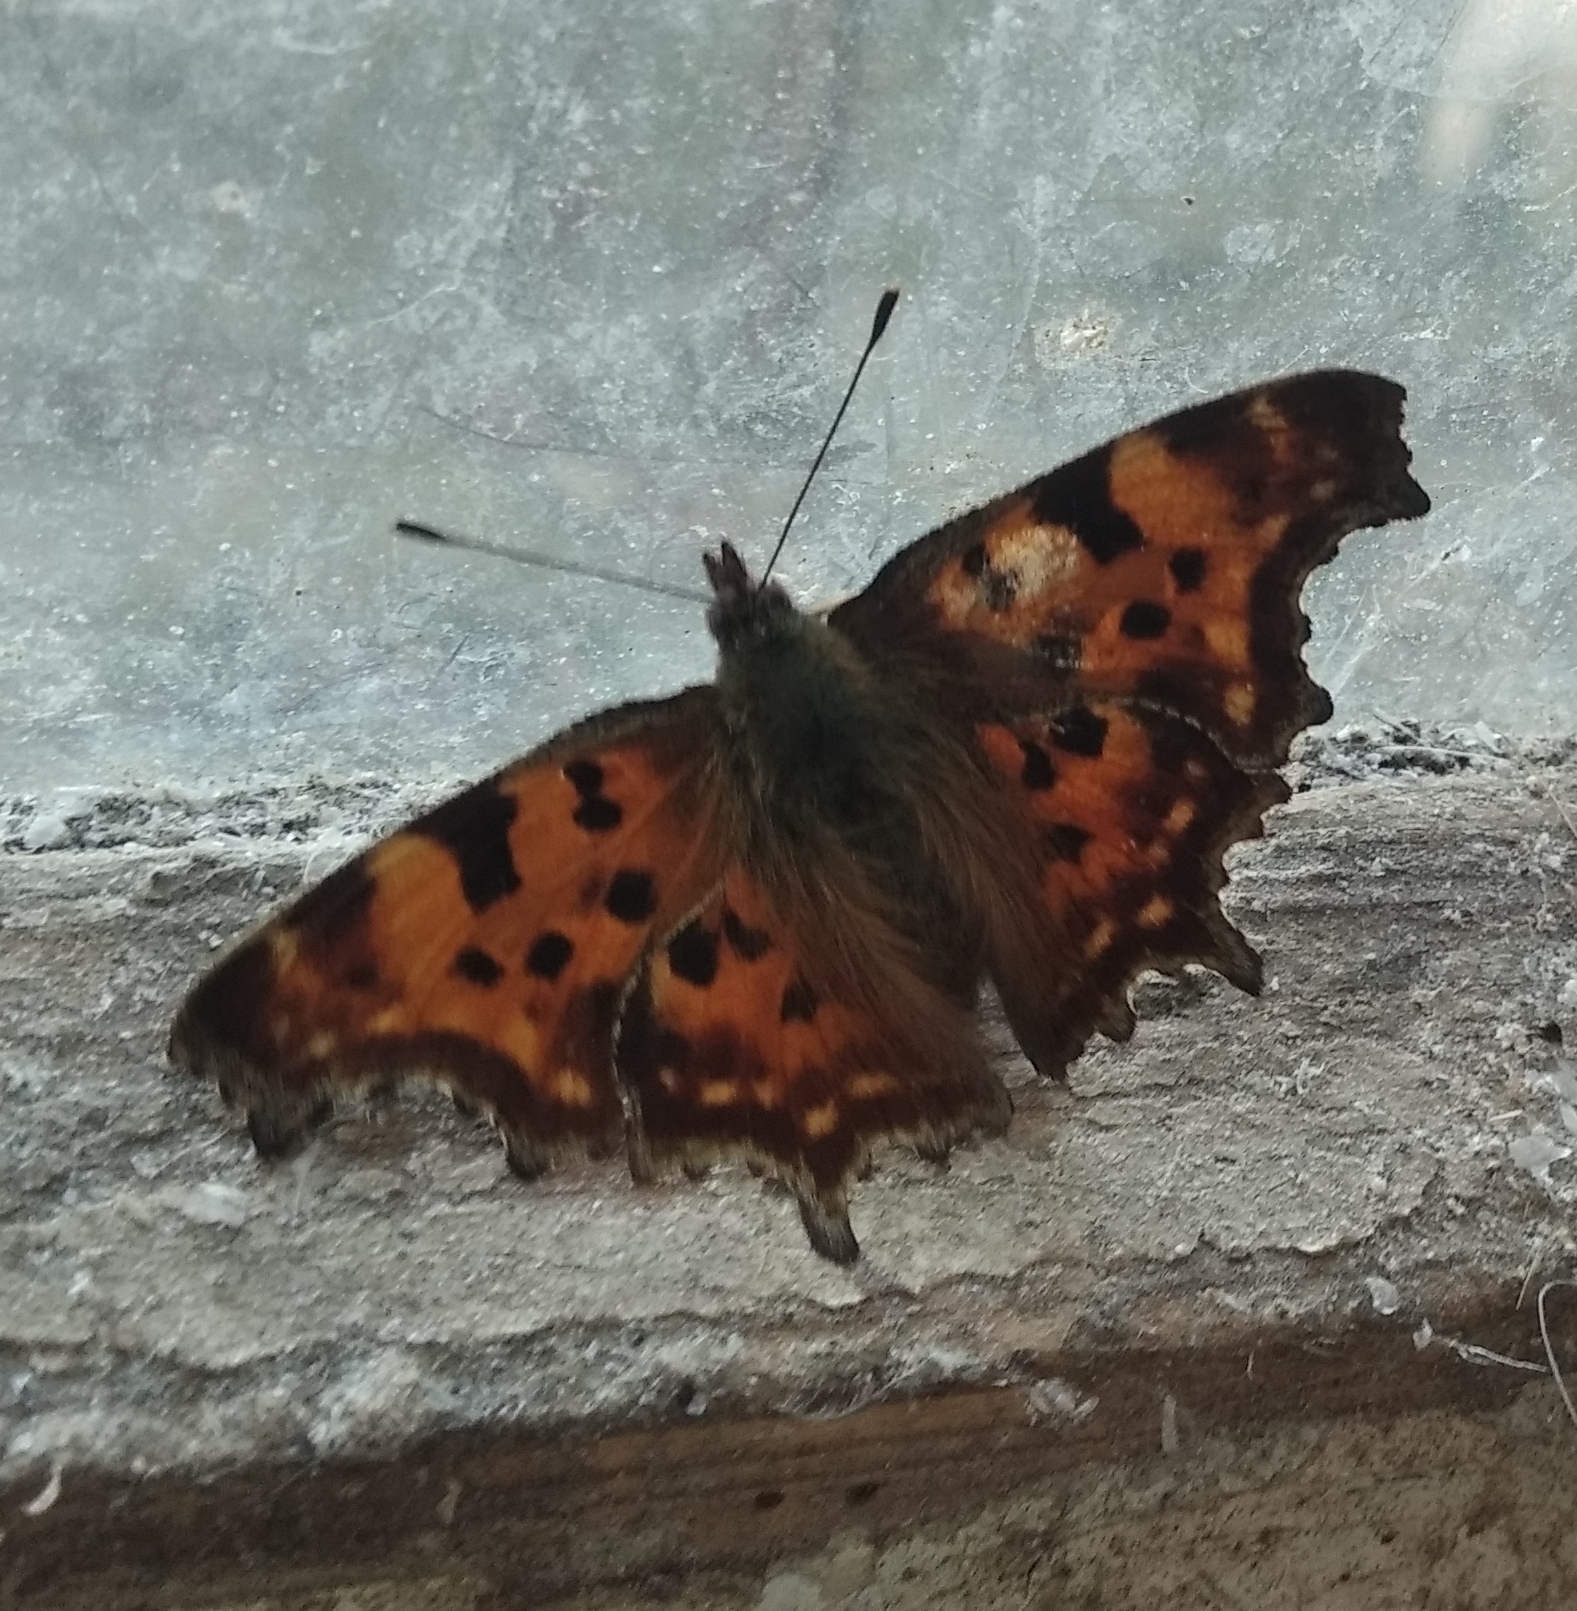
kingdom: Animalia
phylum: Arthropoda
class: Insecta
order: Lepidoptera
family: Nymphalidae
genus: Polygonia
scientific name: Polygonia c-album
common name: Comma
